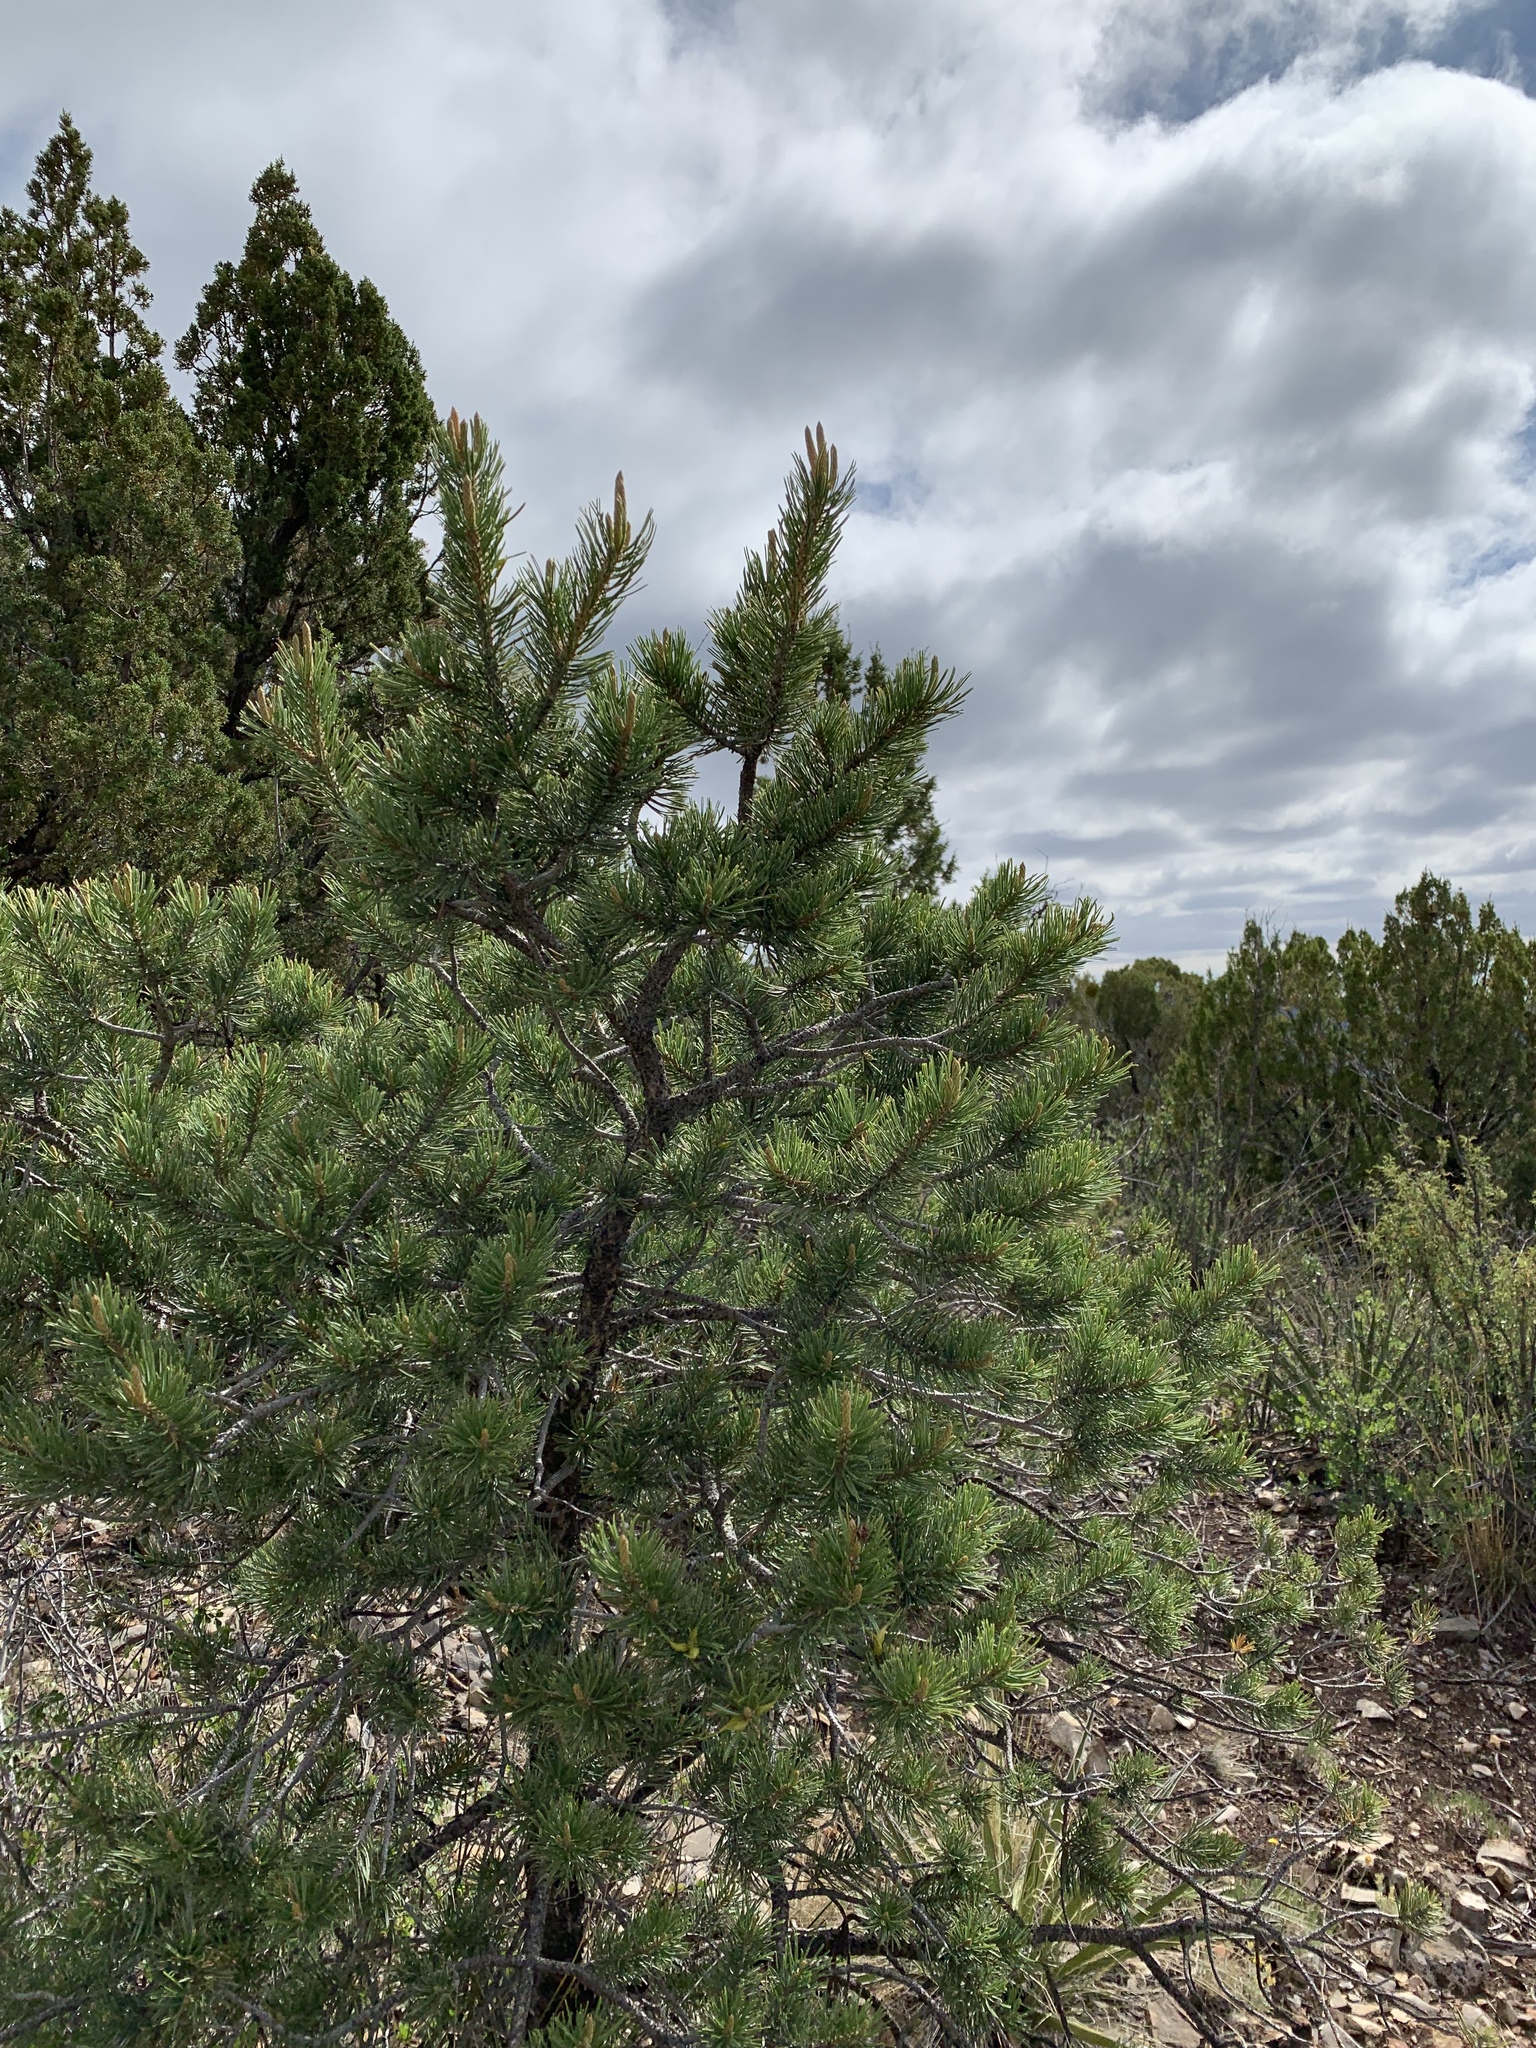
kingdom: Plantae
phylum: Tracheophyta
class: Pinopsida
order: Pinales
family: Pinaceae
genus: Pinus
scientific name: Pinus edulis
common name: Colorado pinyon
